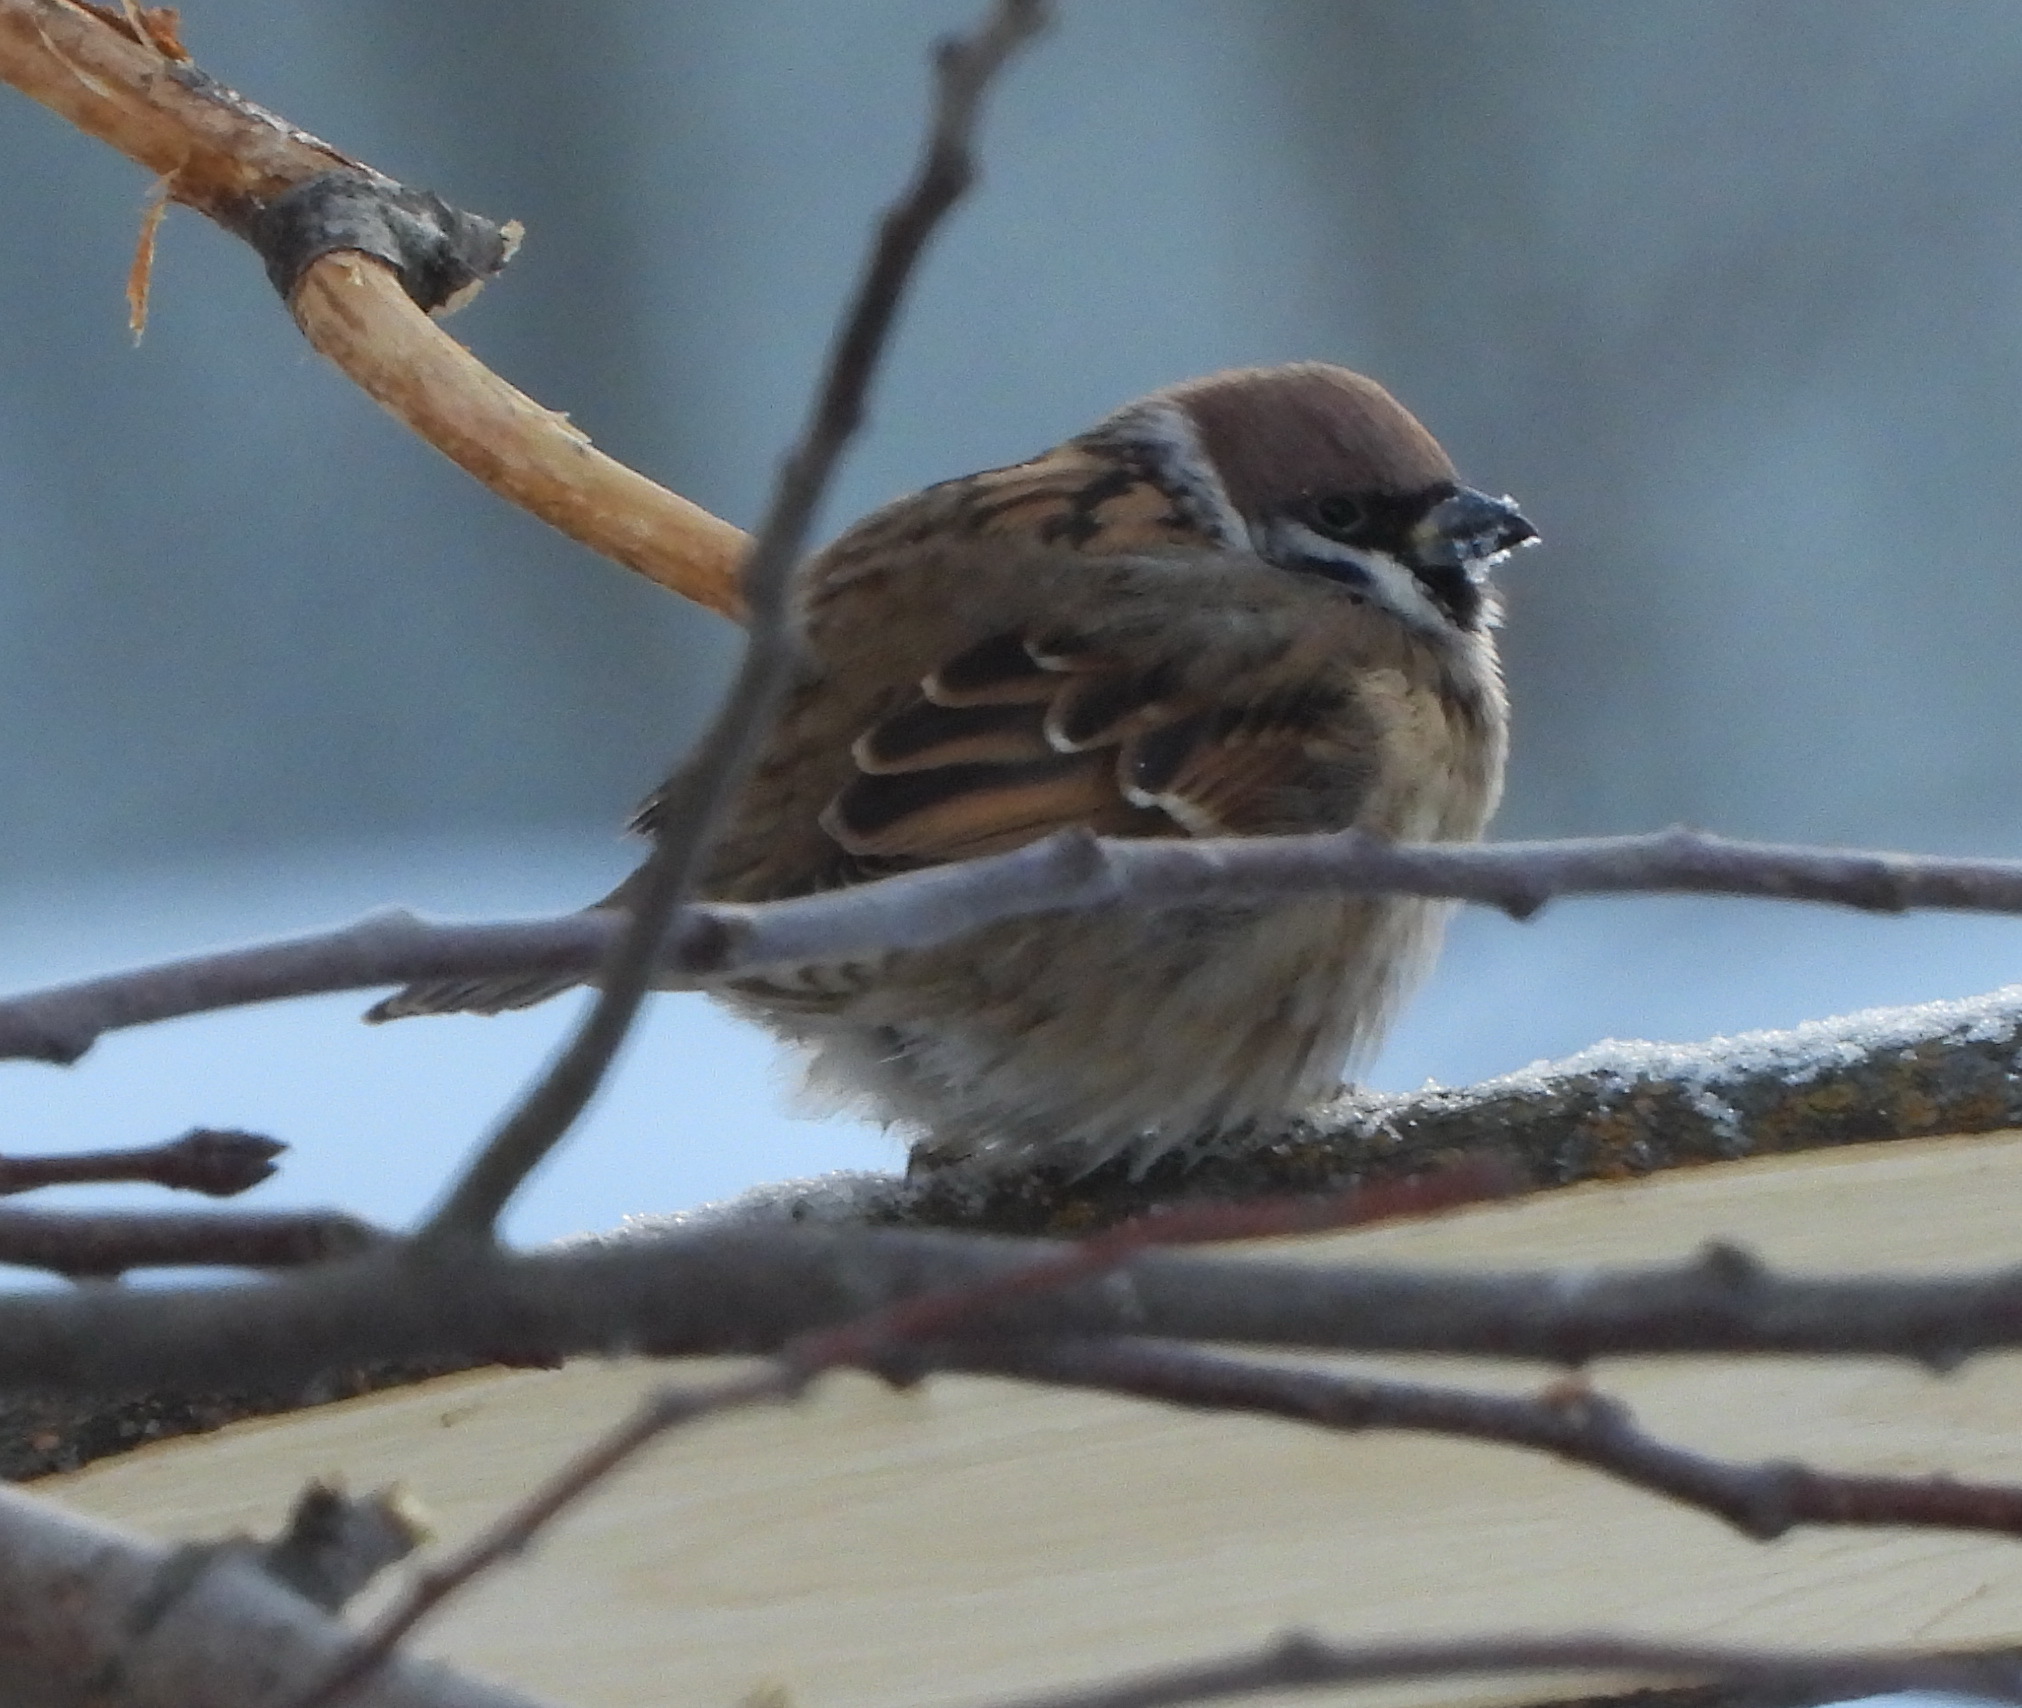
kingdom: Animalia
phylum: Chordata
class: Aves
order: Passeriformes
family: Passeridae
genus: Passer
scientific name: Passer montanus
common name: Eurasian tree sparrow
